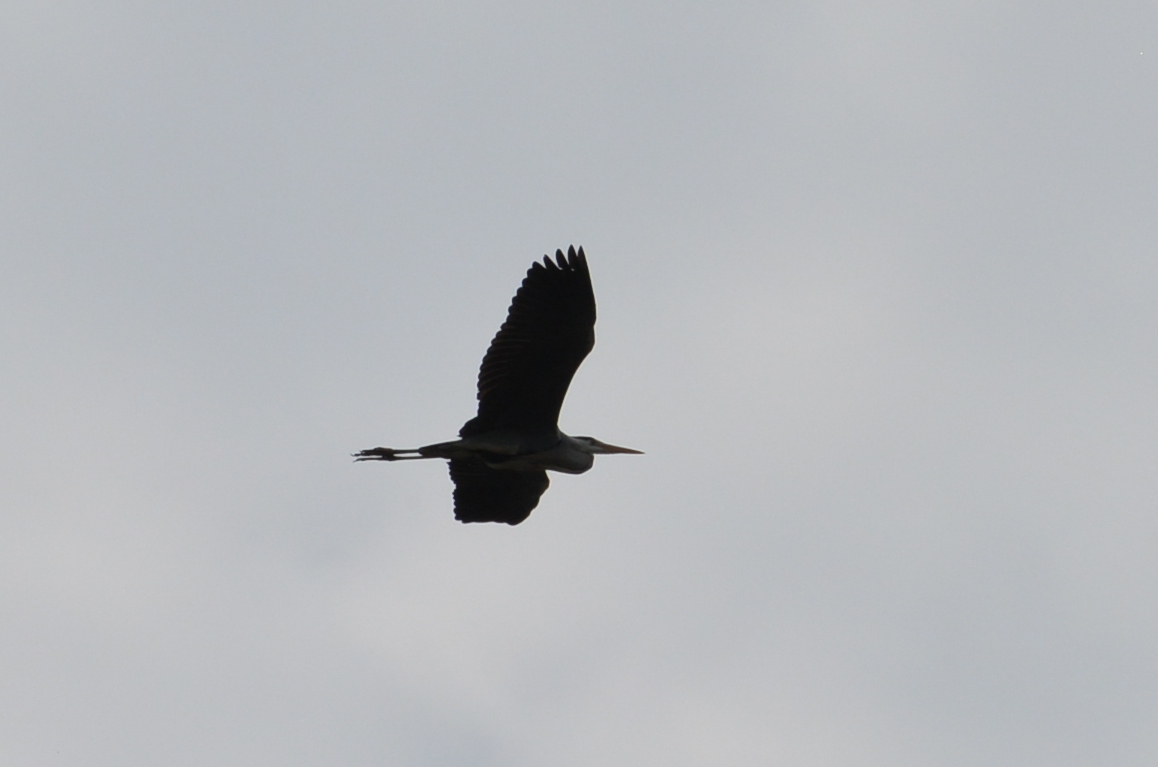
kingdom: Animalia
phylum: Chordata
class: Aves
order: Pelecaniformes
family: Ardeidae
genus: Ardea
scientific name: Ardea cinerea
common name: Grey heron
